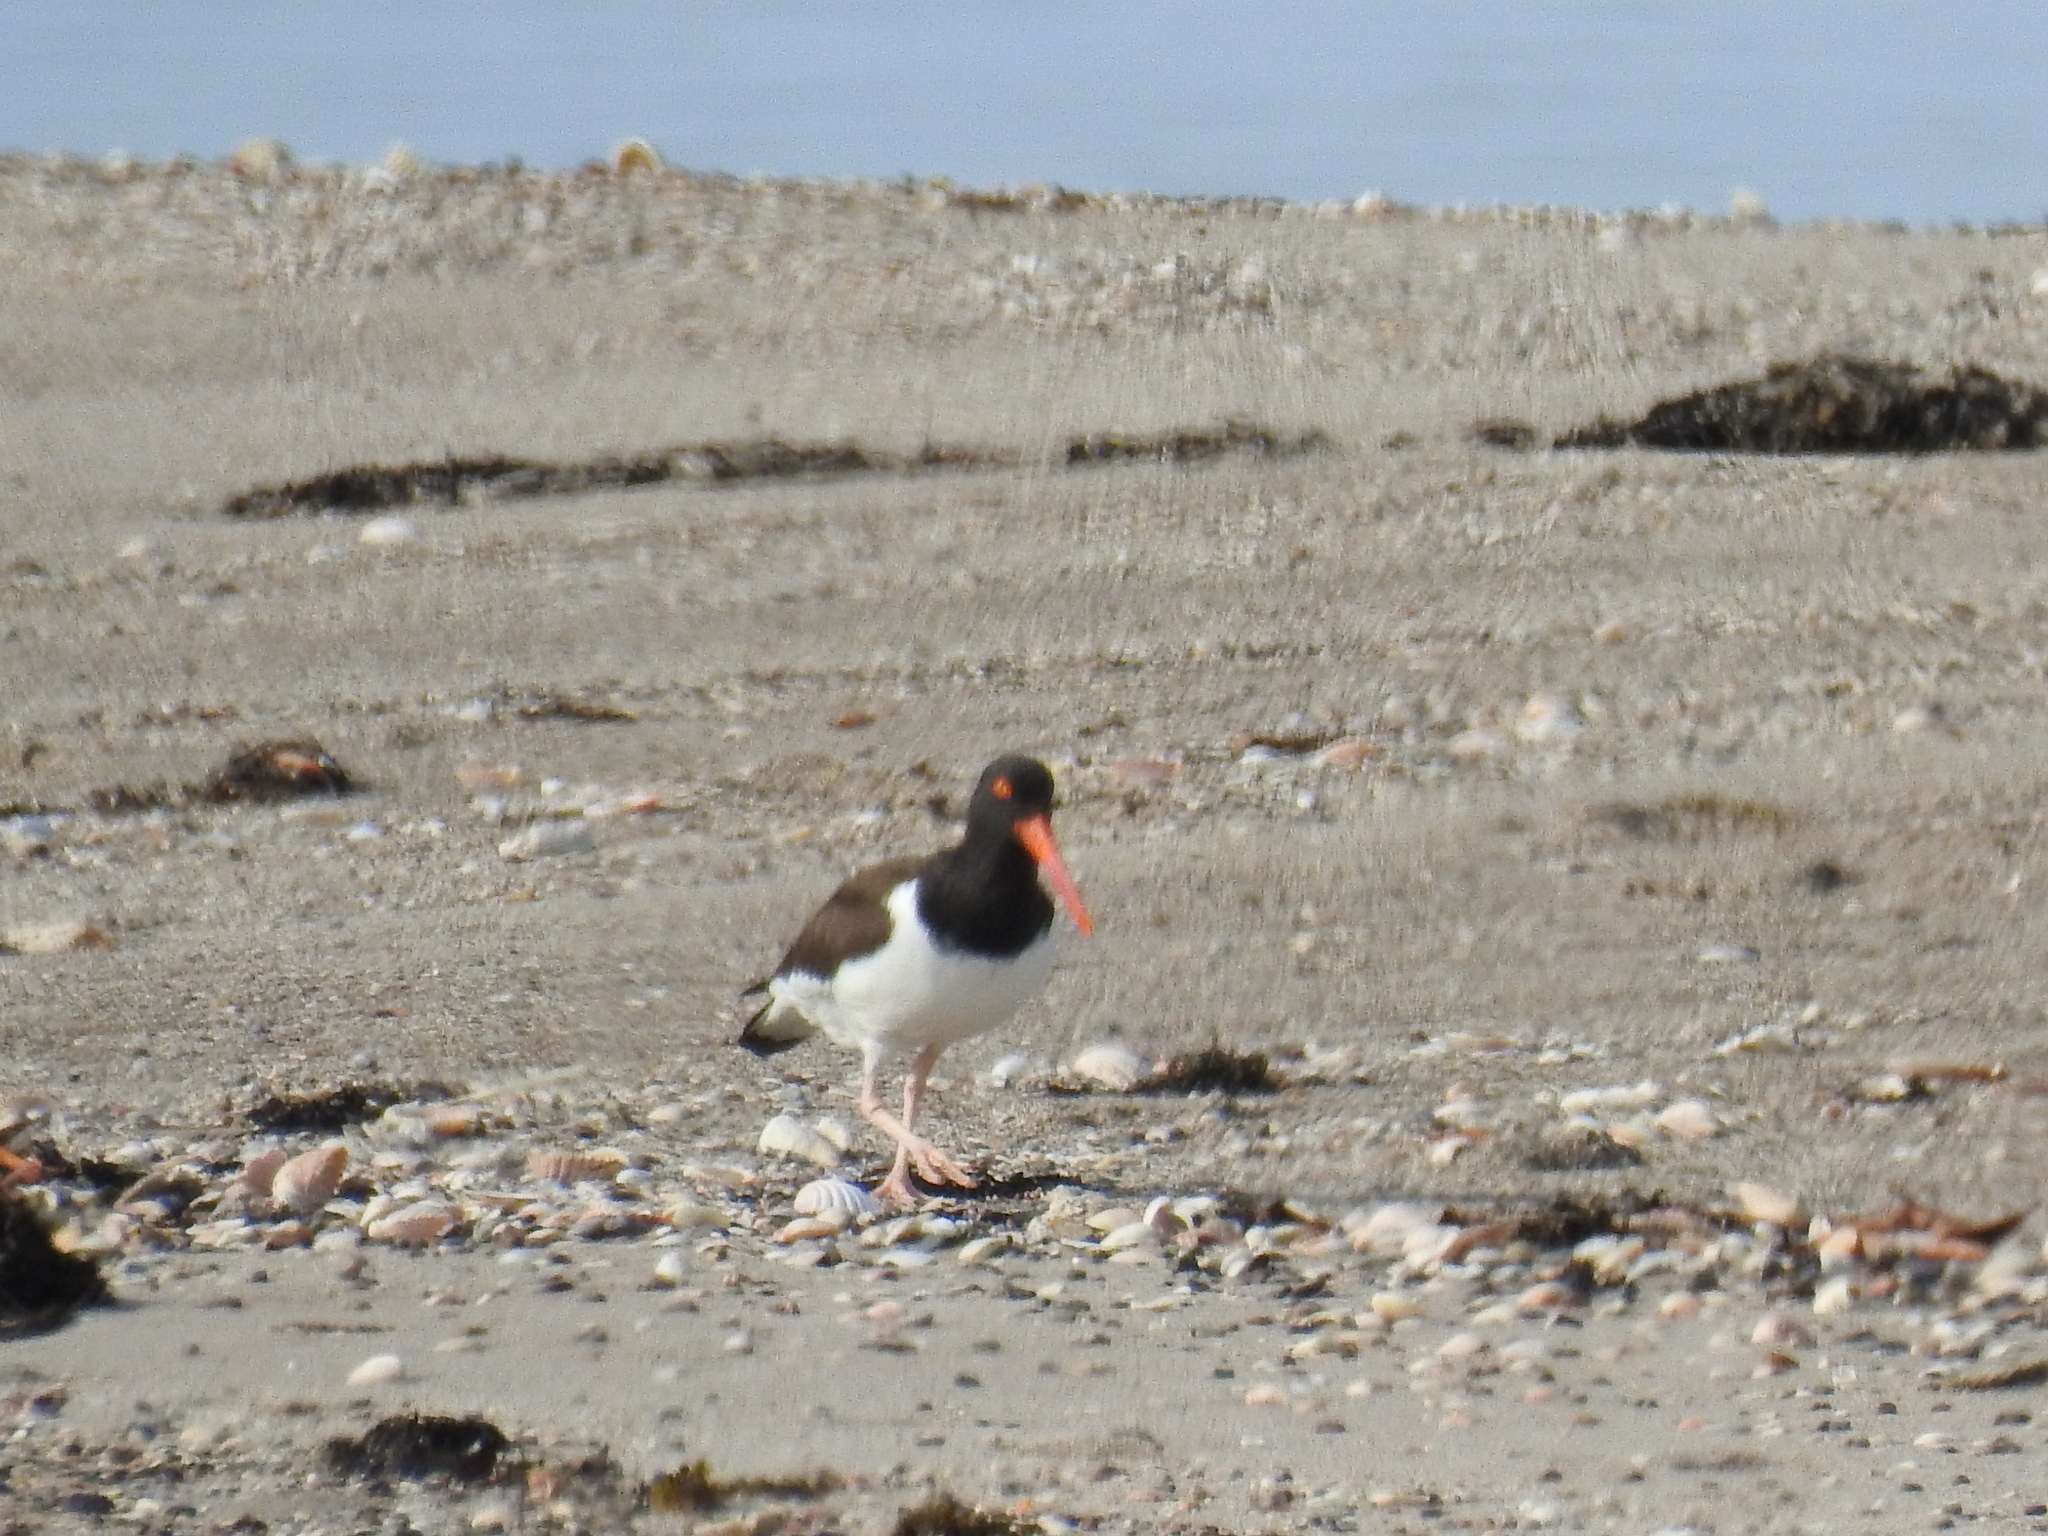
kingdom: Animalia
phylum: Chordata
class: Aves
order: Charadriiformes
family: Haematopodidae
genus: Haematopus
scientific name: Haematopus palliatus
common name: American oystercatcher
